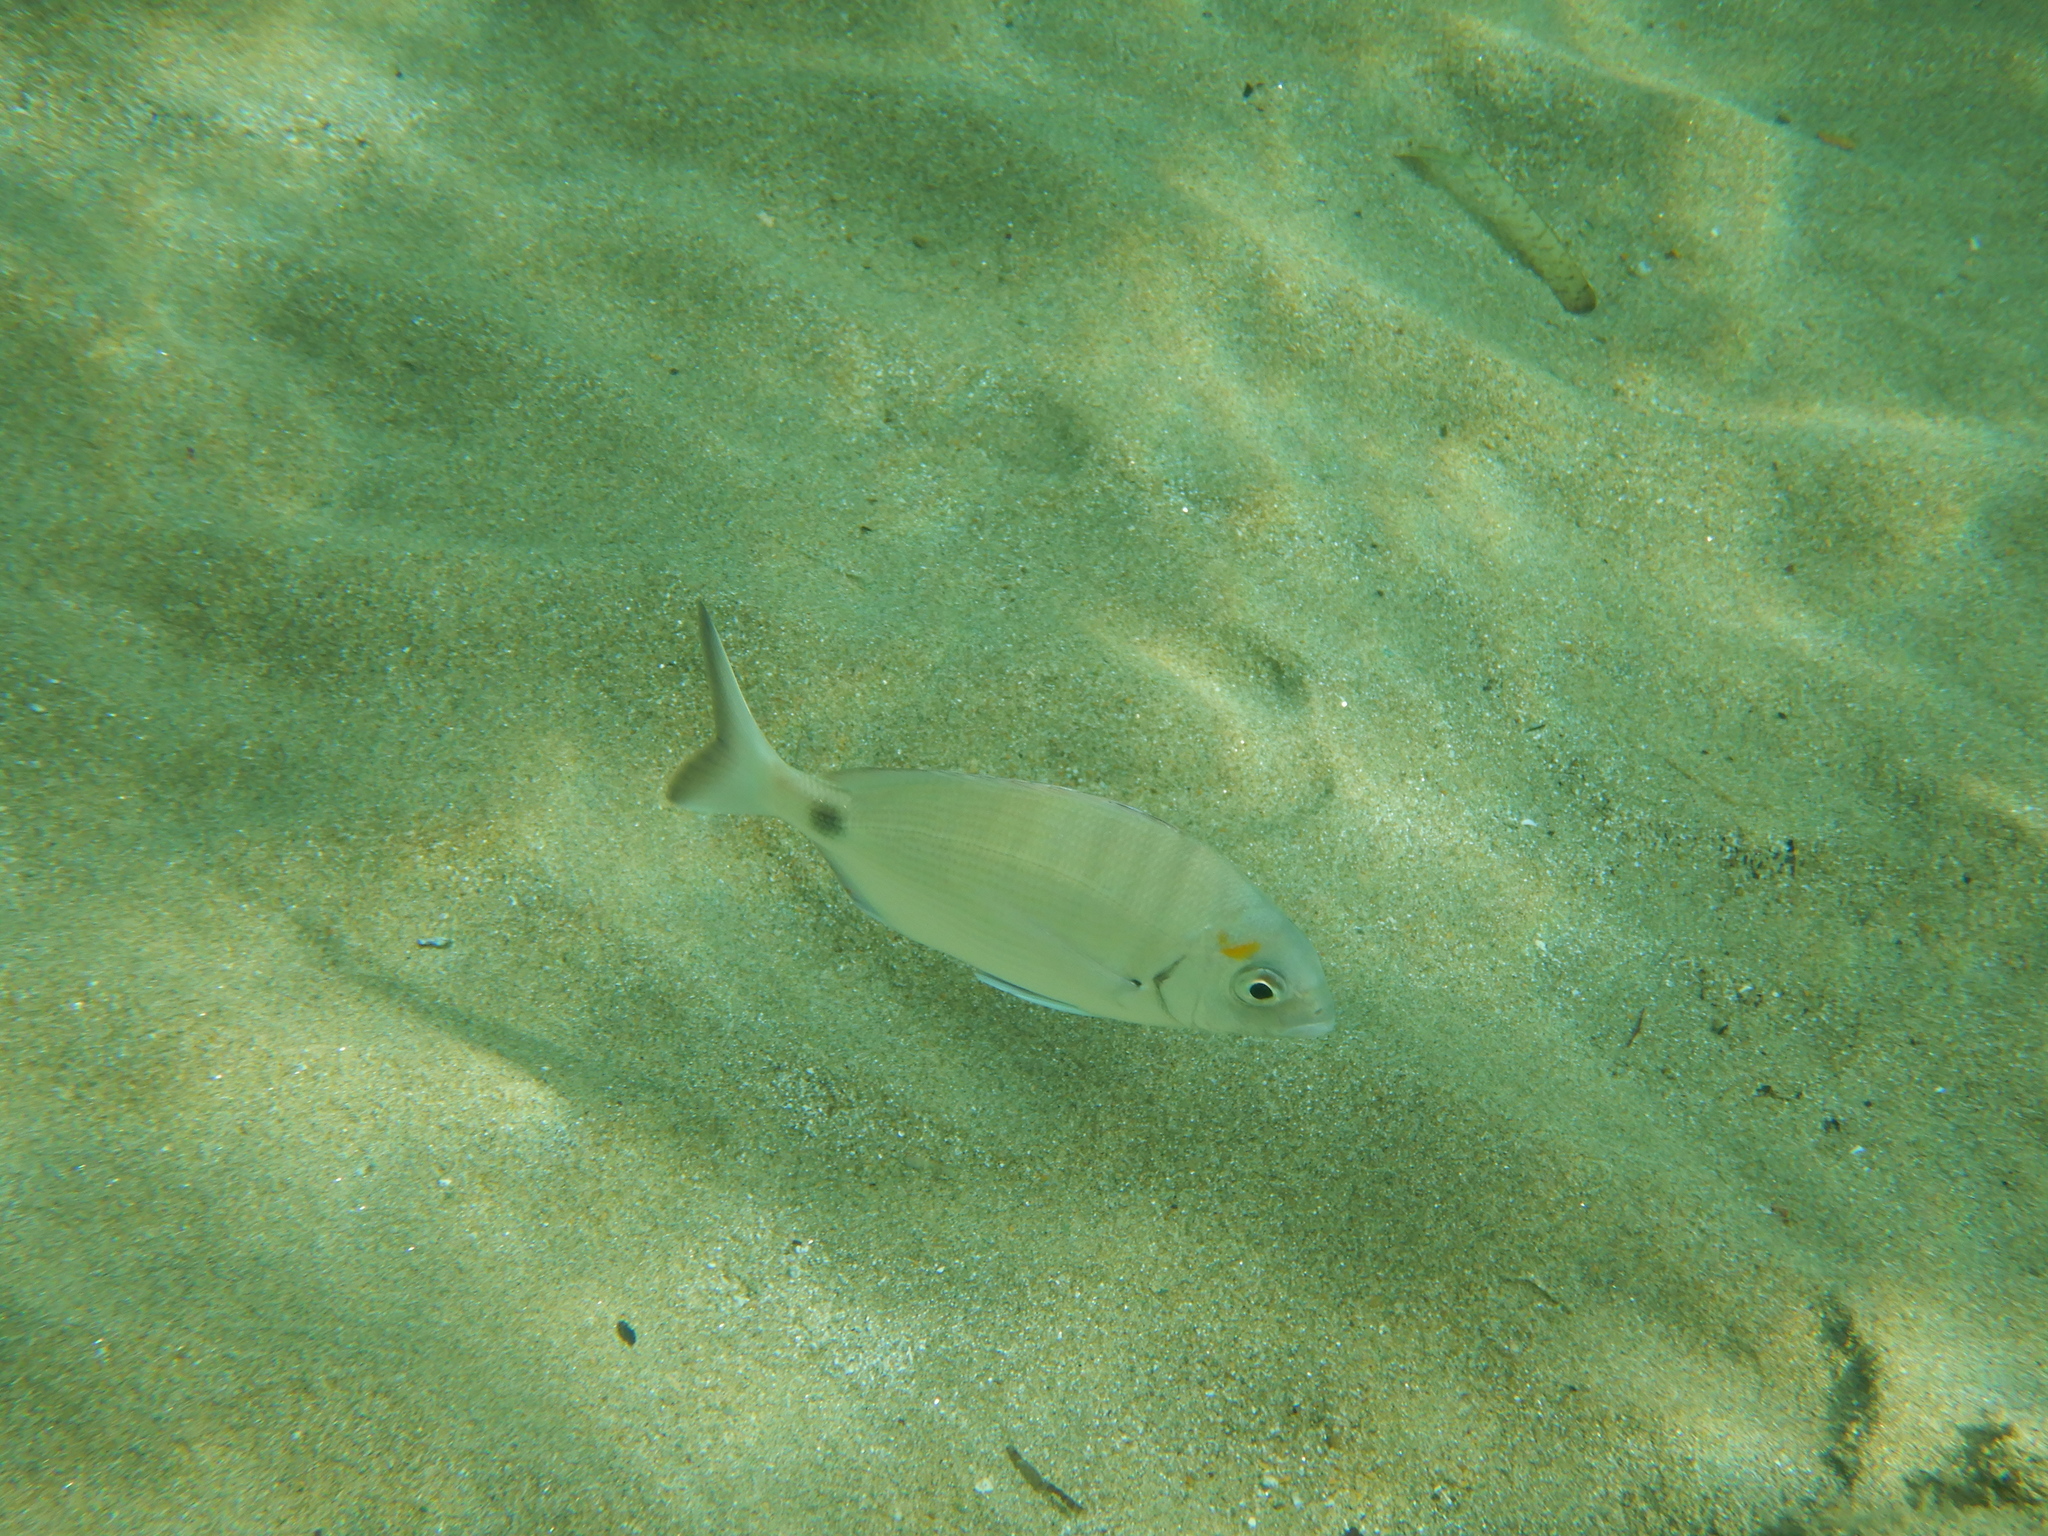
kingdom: Animalia
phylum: Chordata
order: Perciformes
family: Sparidae
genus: Diplodus
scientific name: Diplodus sargus
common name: White seabream
